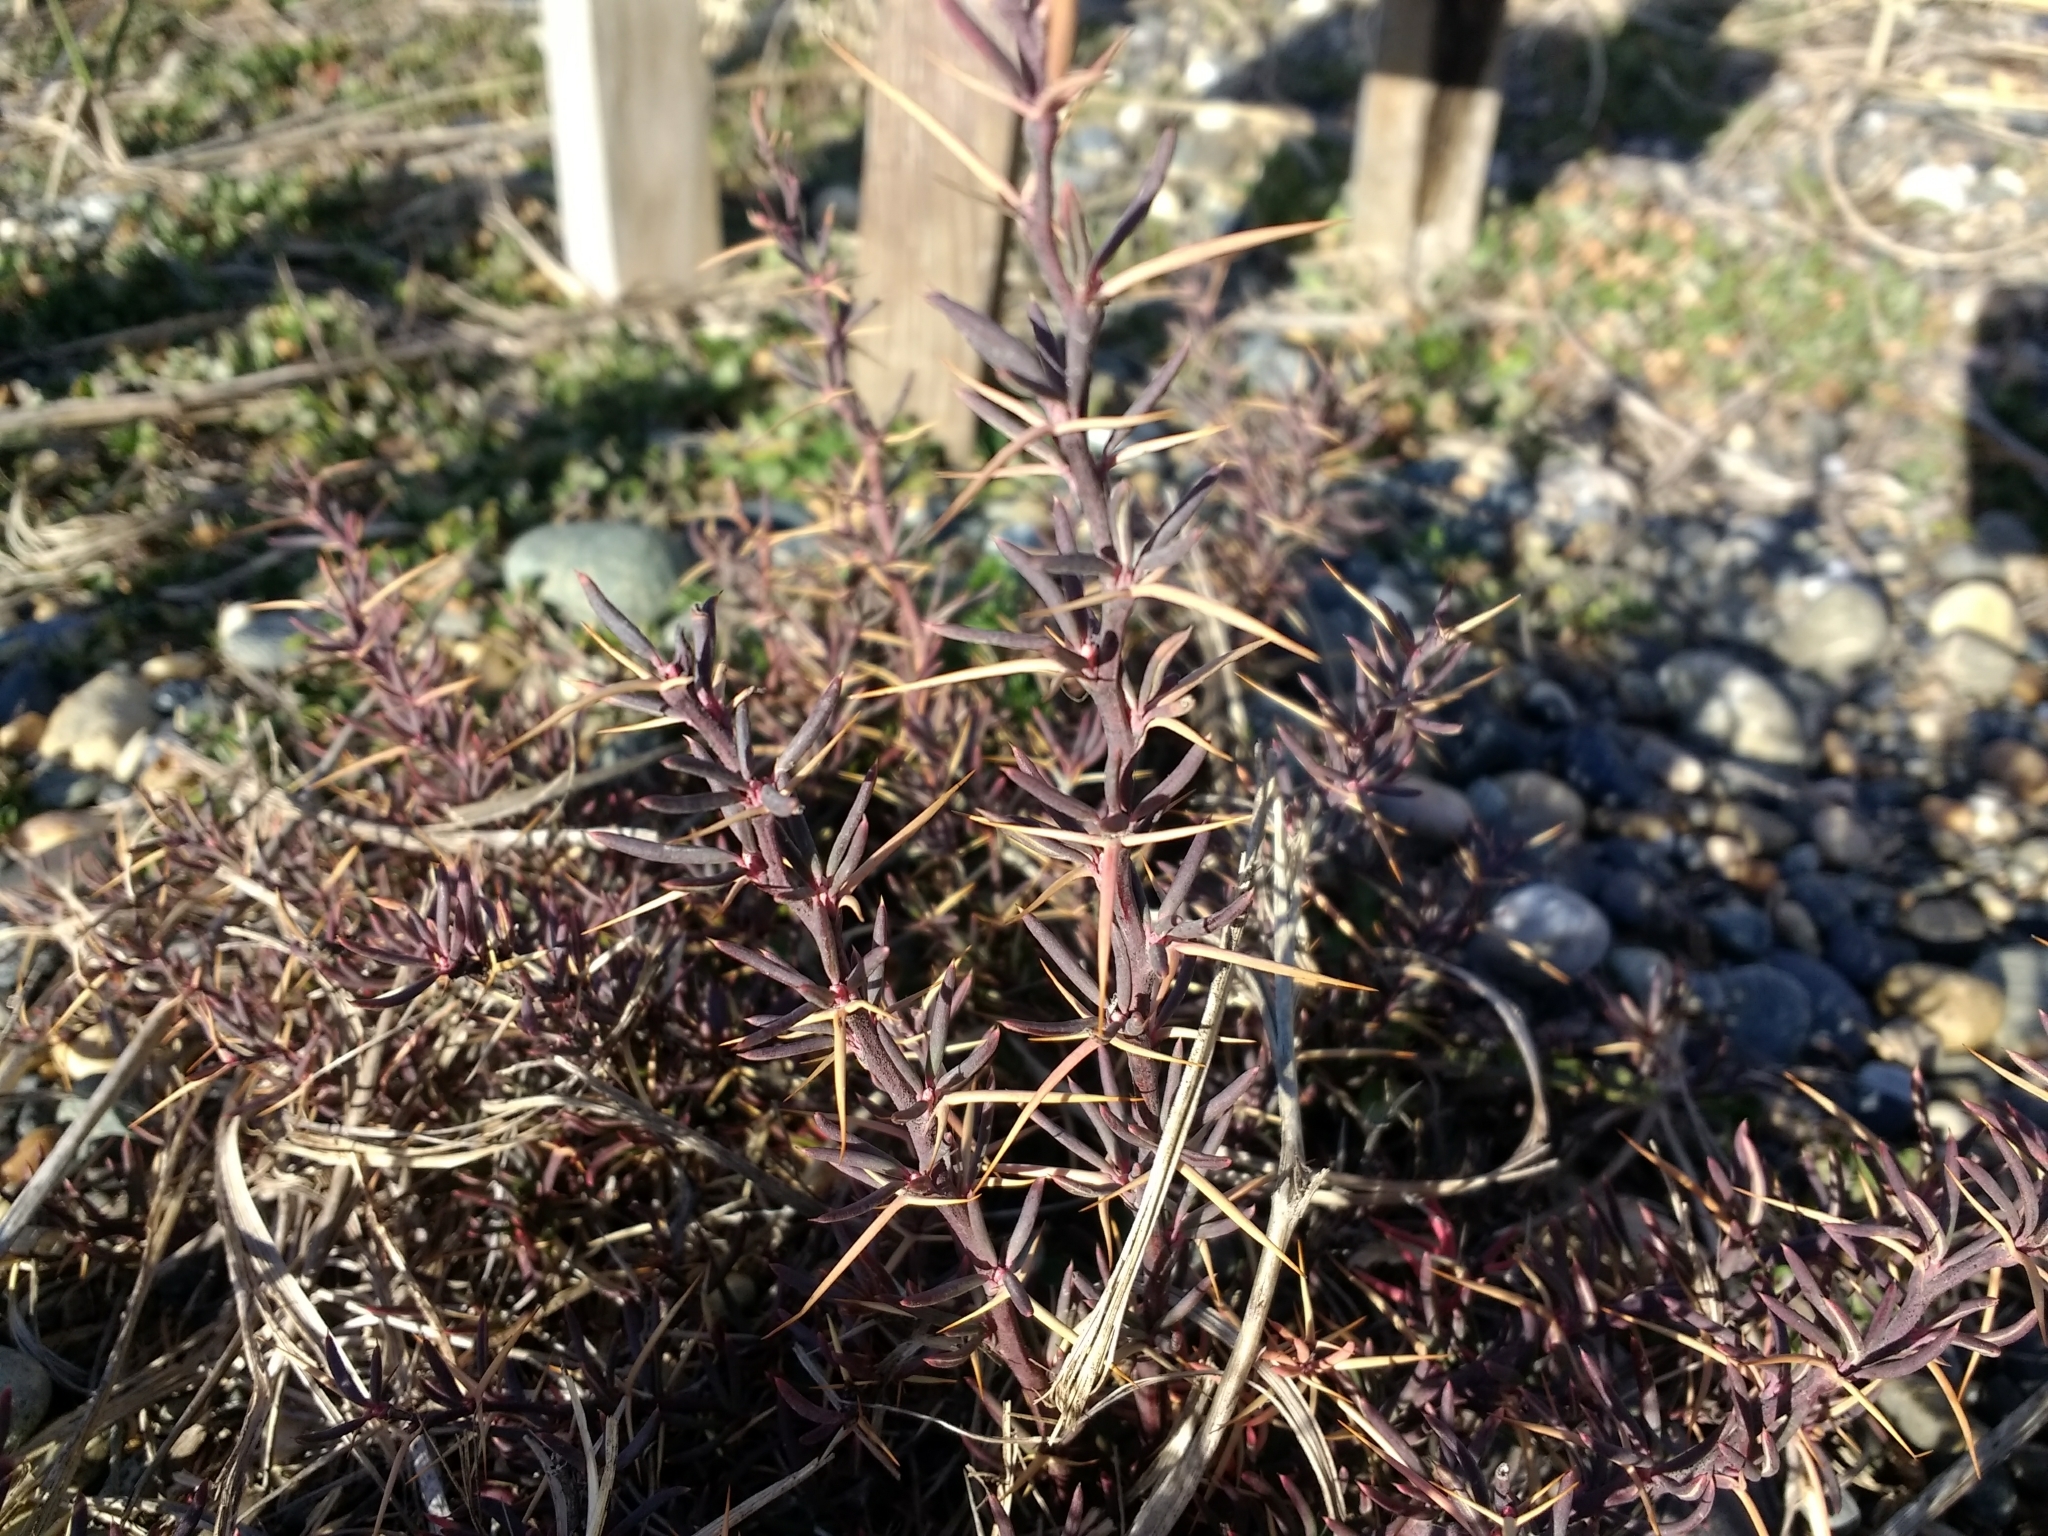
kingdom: Plantae
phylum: Tracheophyta
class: Magnoliopsida
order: Ranunculales
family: Berberidaceae
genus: Berberis
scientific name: Berberis empetrifolia
